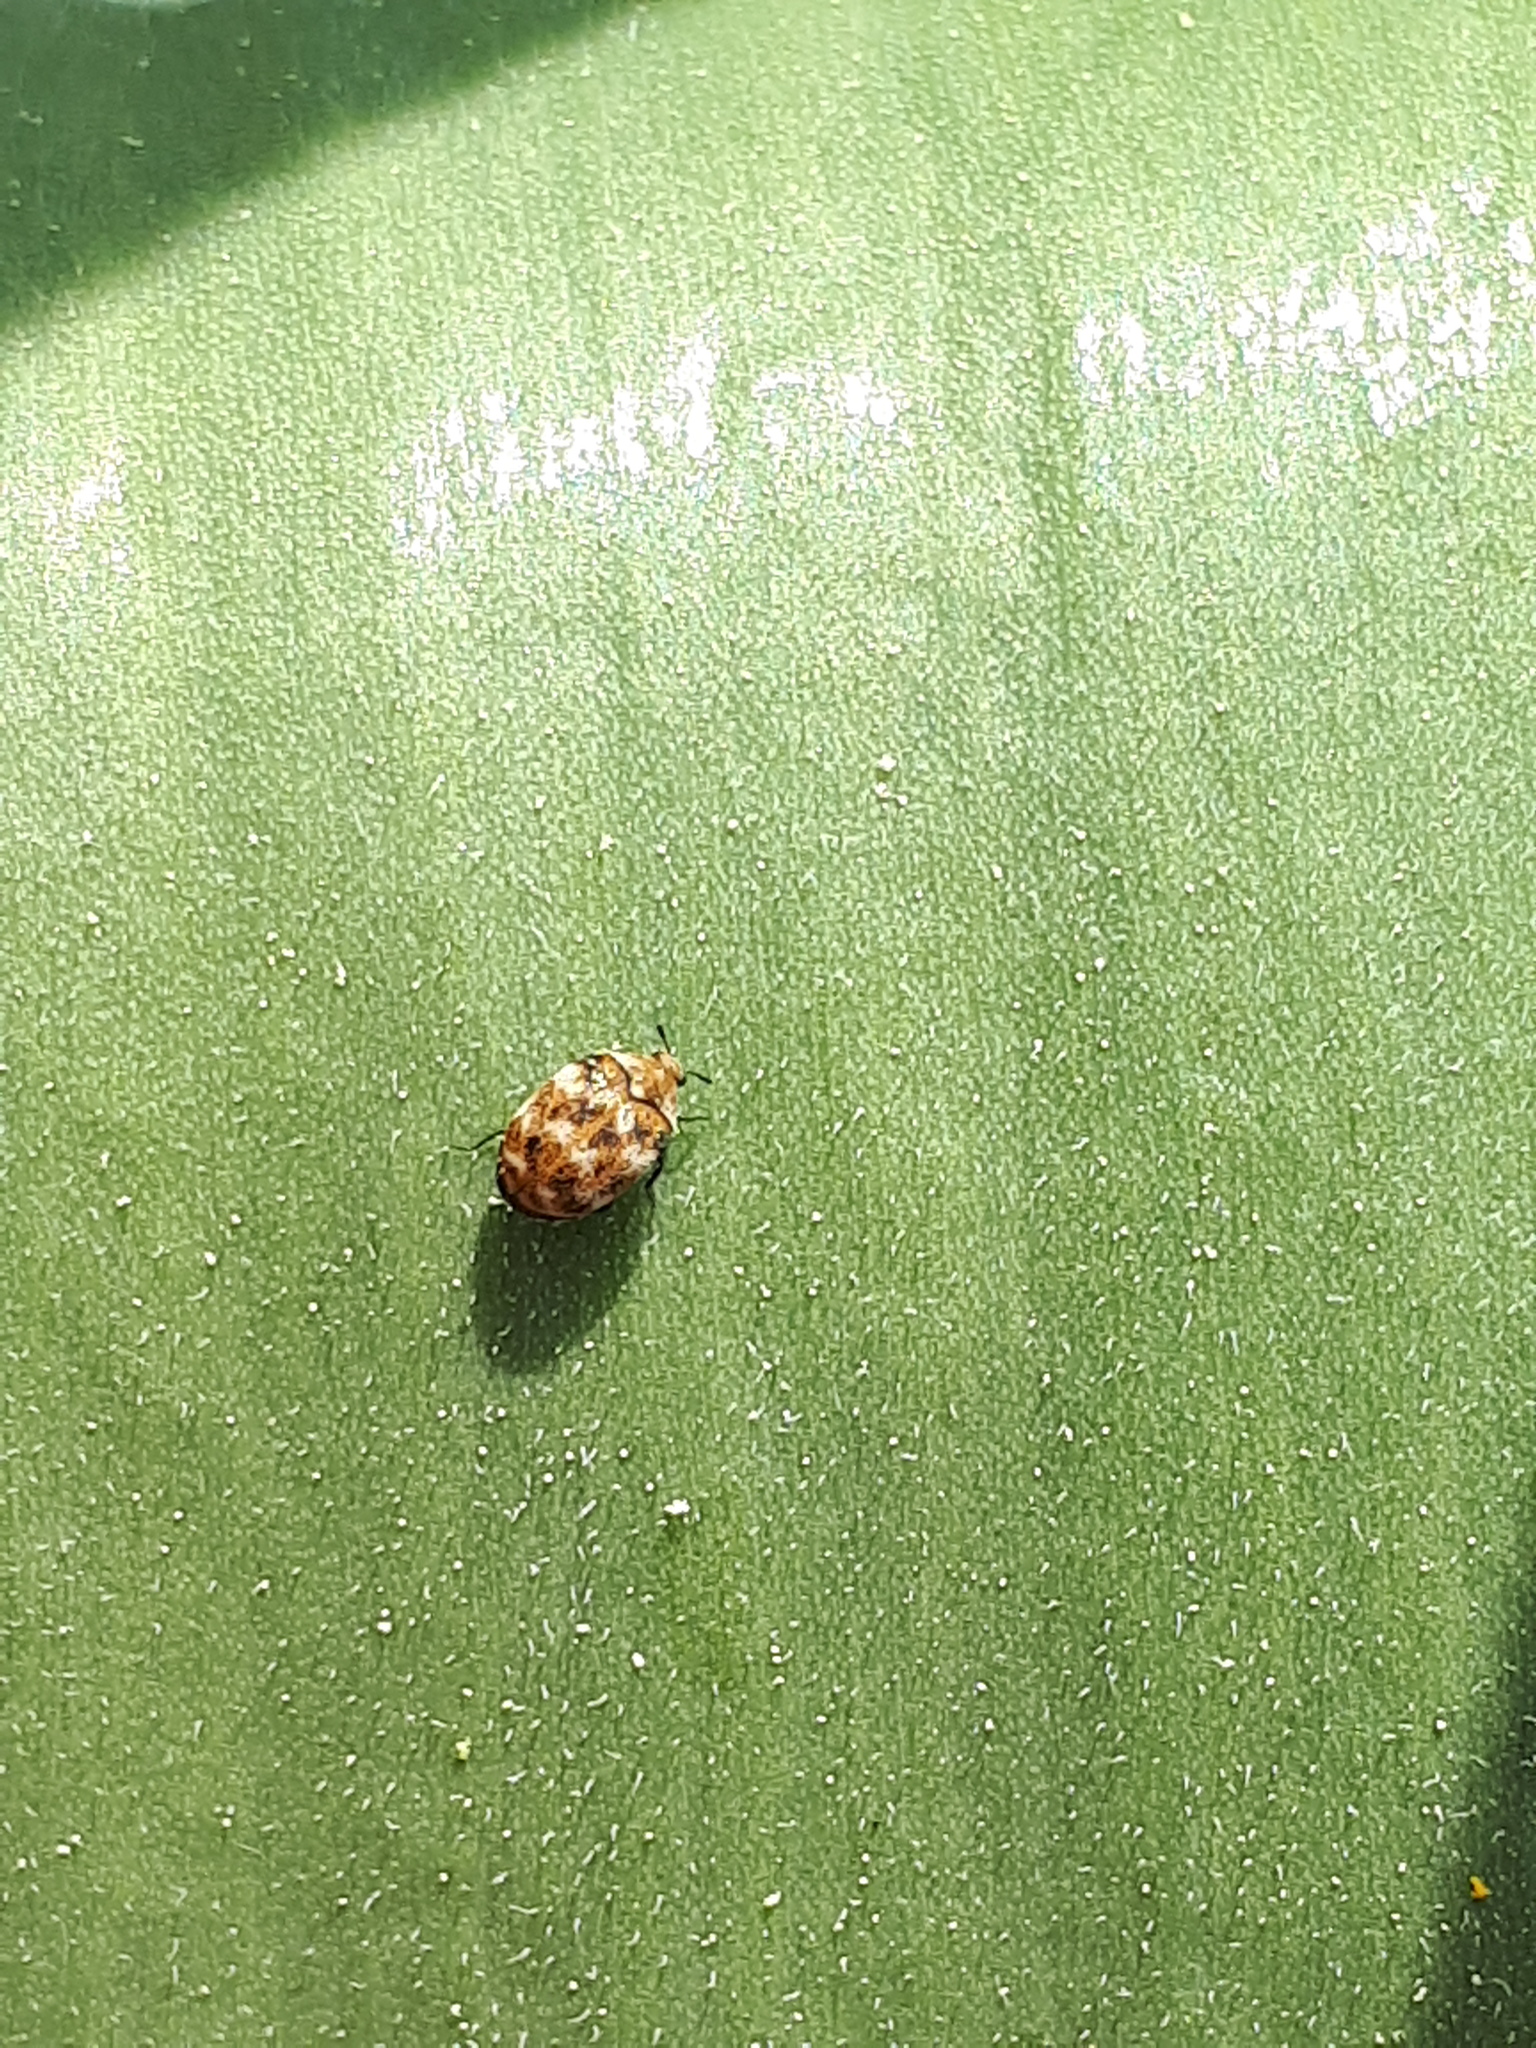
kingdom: Animalia
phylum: Arthropoda
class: Insecta
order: Coleoptera
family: Dermestidae
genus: Anthrenus
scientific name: Anthrenus verbasci
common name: Varied carpet beetle
